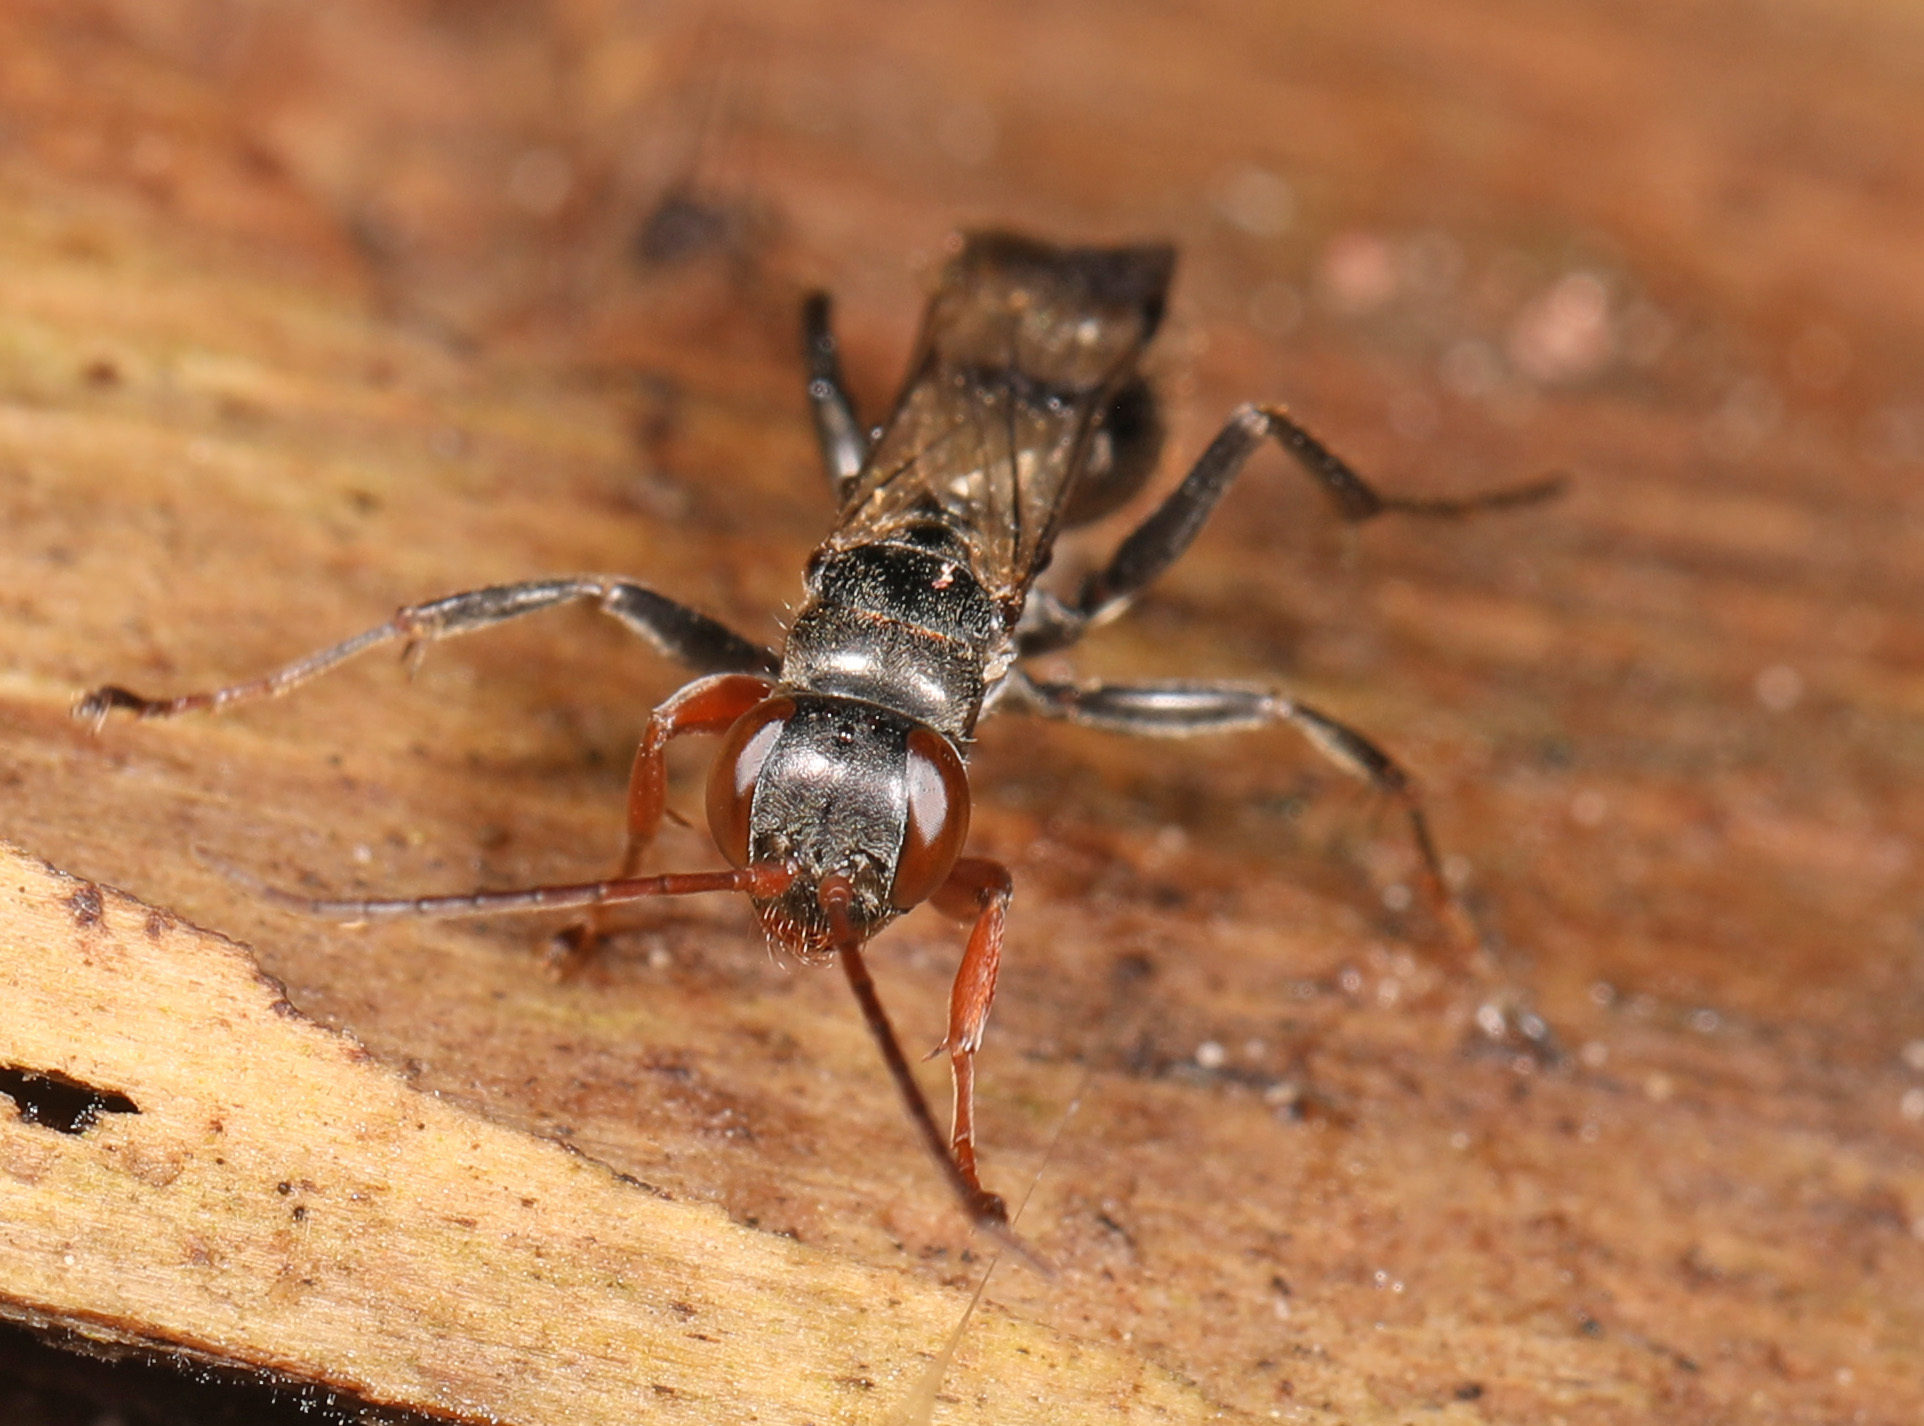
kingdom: Animalia
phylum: Arthropoda
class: Insecta
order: Hymenoptera
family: Pompilidae
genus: Dipogon
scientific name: Dipogon calipterus
